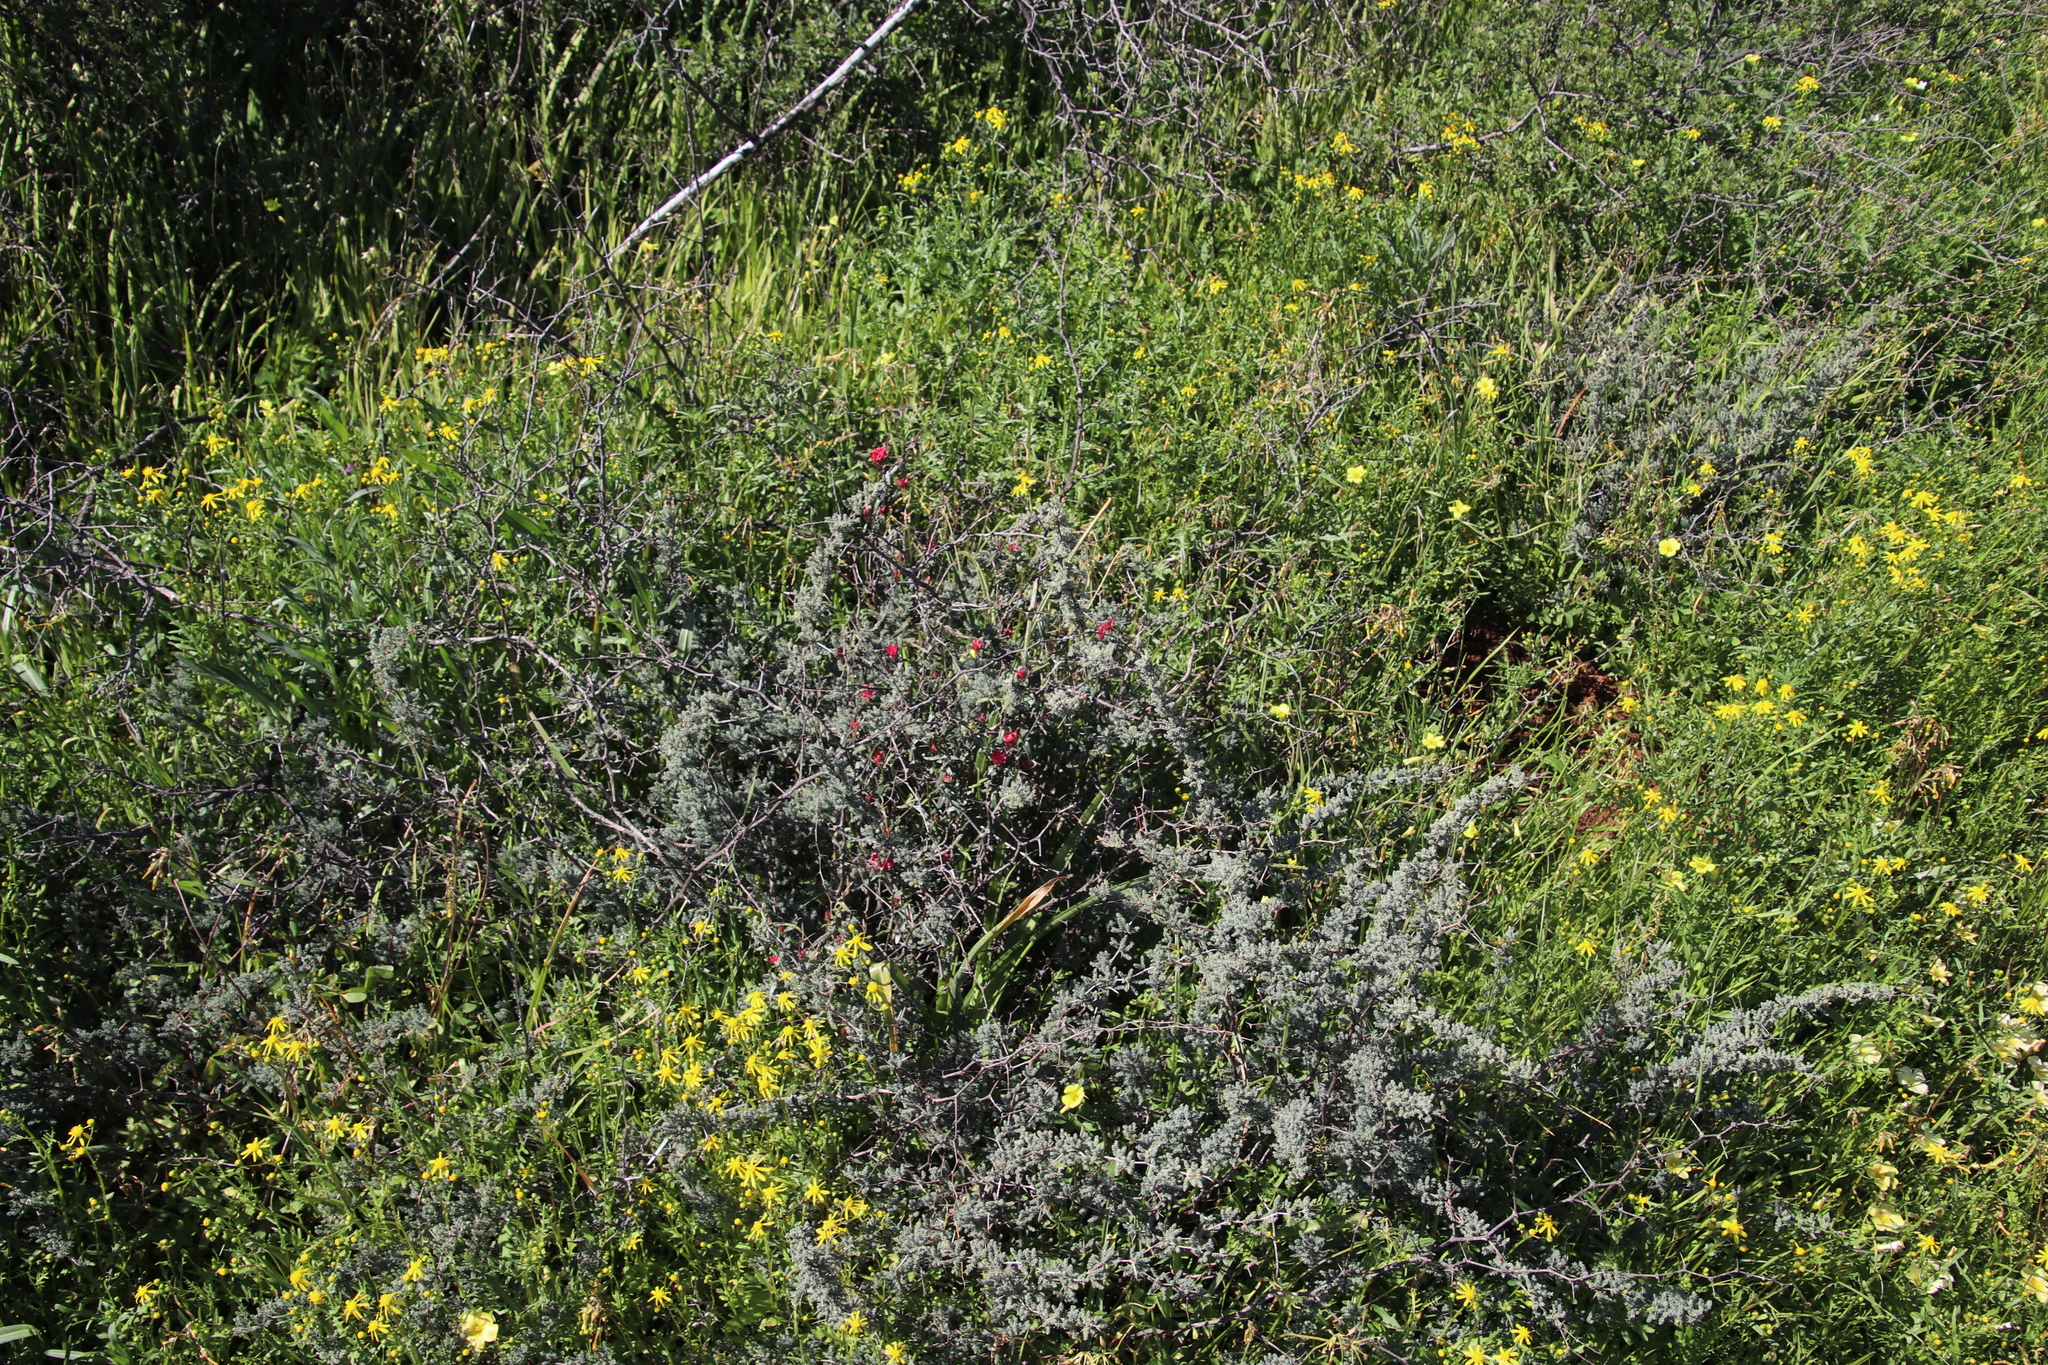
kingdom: Plantae
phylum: Tracheophyta
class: Magnoliopsida
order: Gentianales
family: Apocynaceae
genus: Microloma
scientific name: Microloma sagittatum
